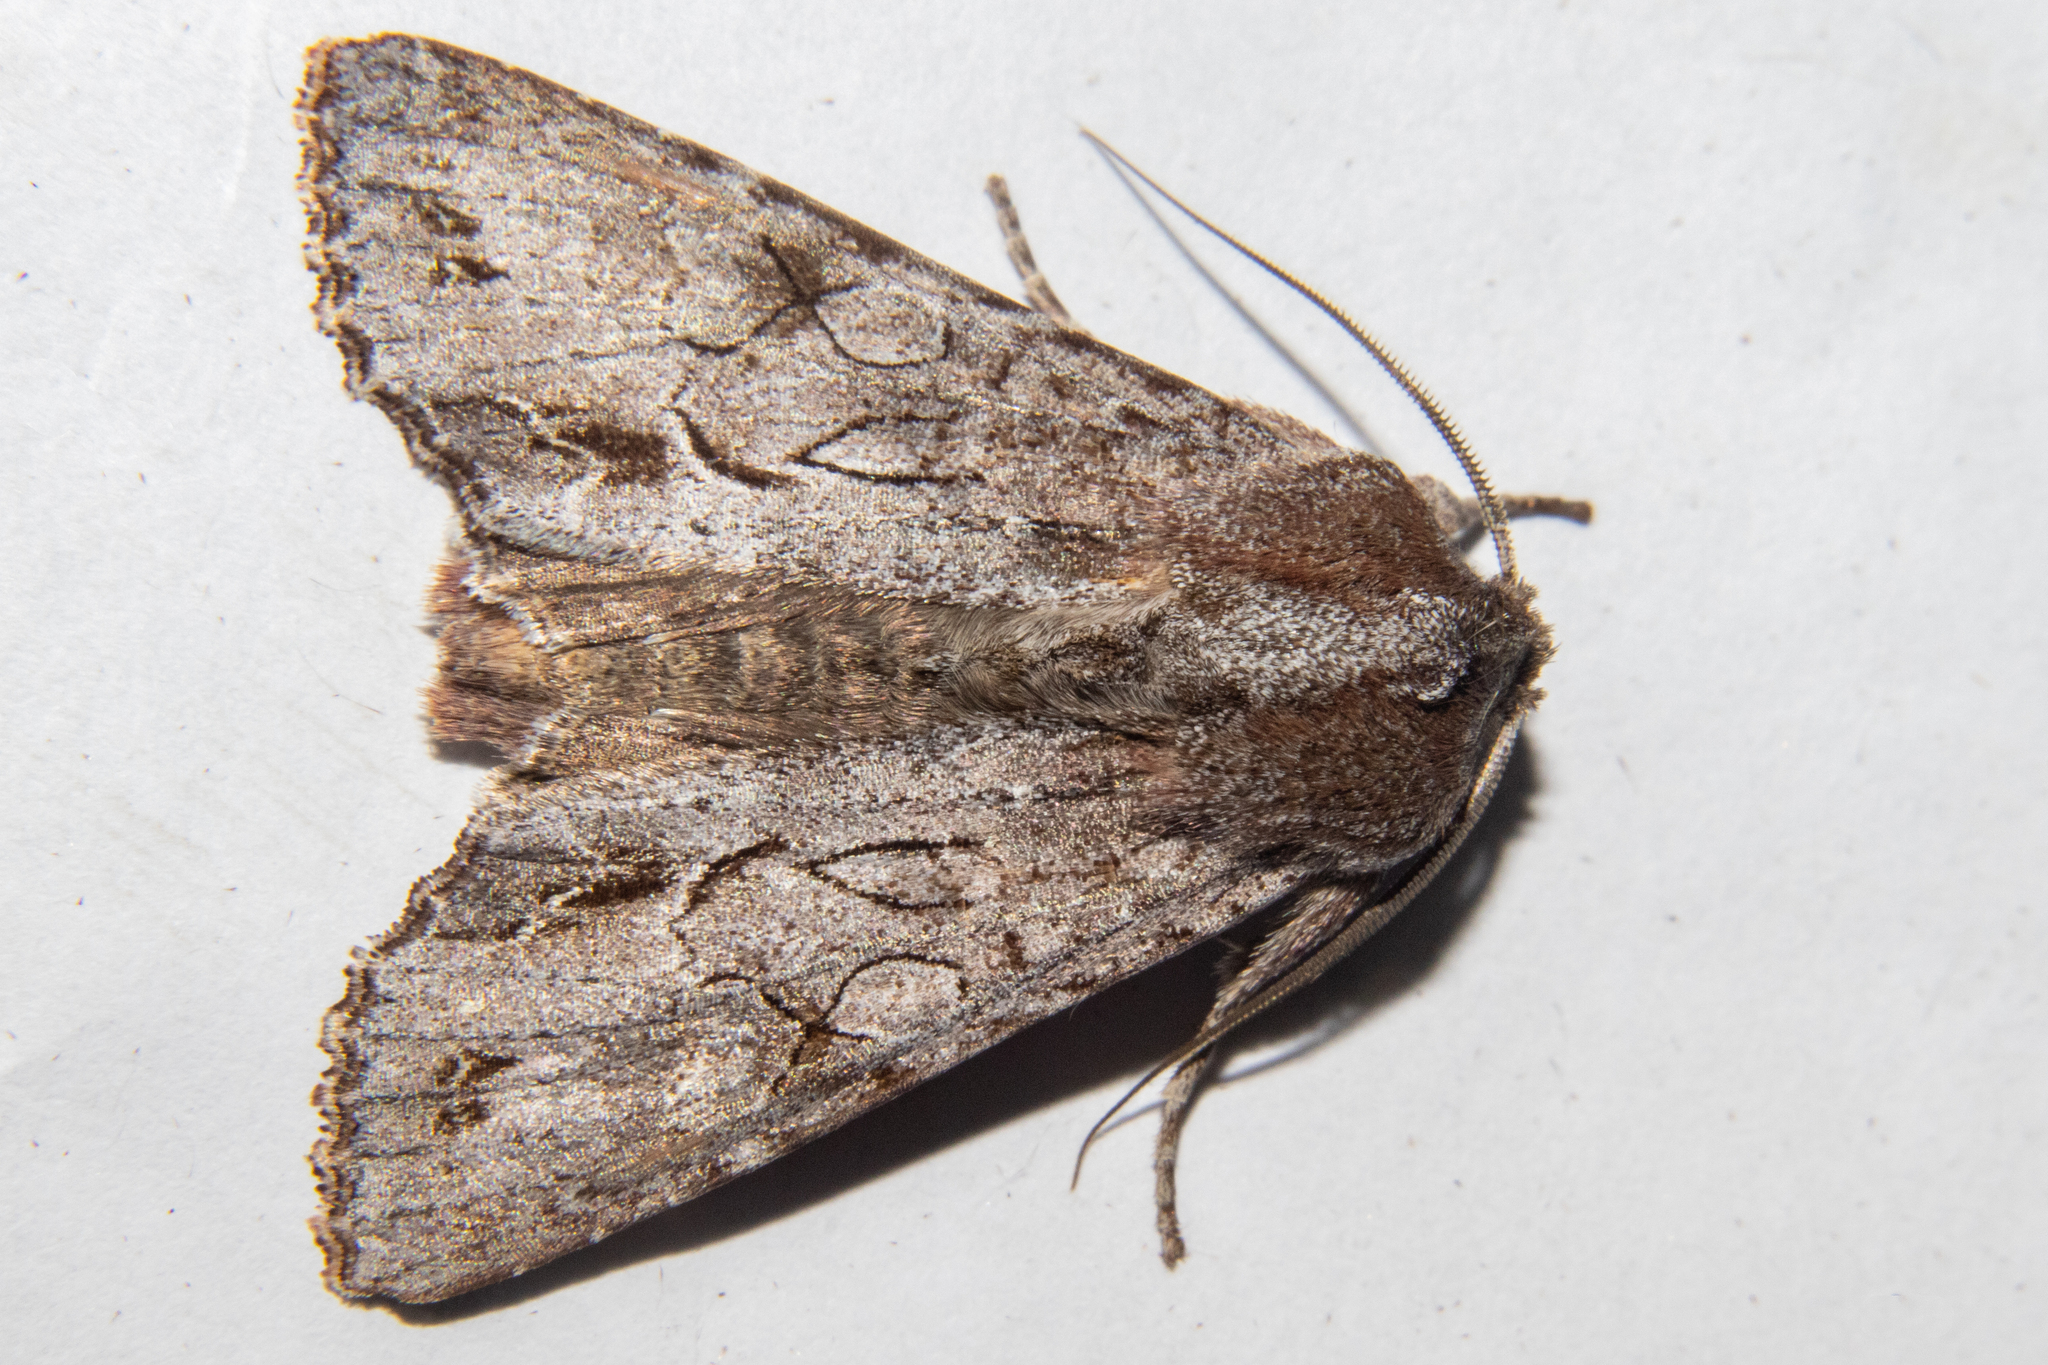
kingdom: Animalia
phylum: Arthropoda
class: Insecta
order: Lepidoptera
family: Noctuidae
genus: Ichneutica
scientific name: Ichneutica
